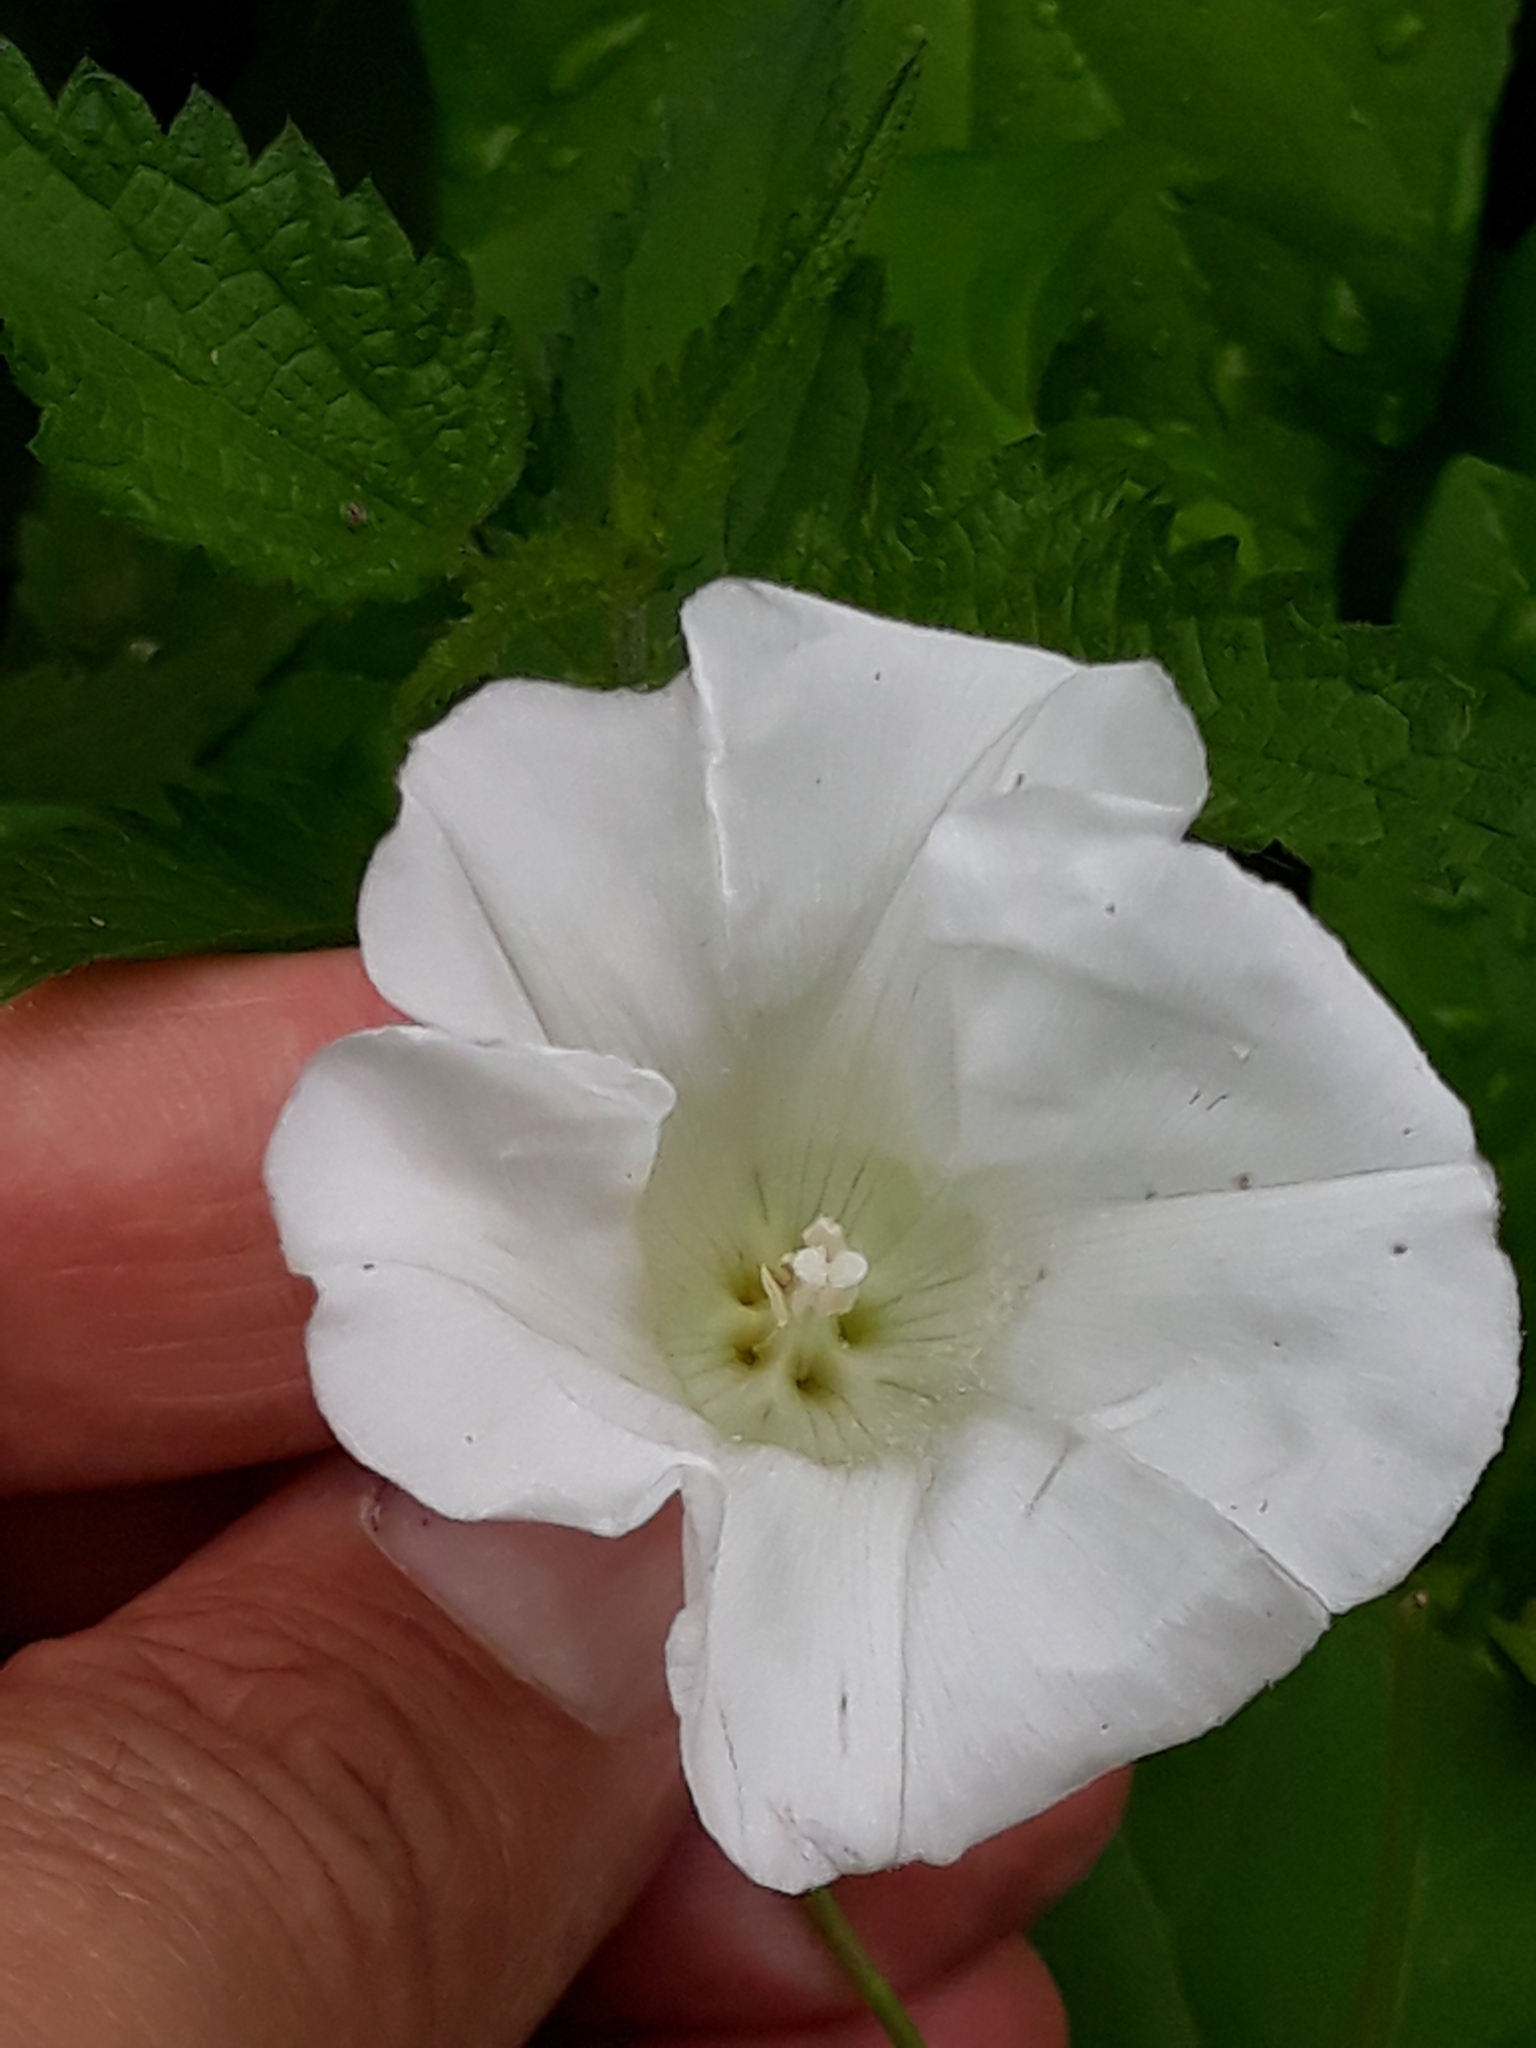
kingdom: Plantae
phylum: Tracheophyta
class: Magnoliopsida
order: Solanales
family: Convolvulaceae
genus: Calystegia
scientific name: Calystegia sepium
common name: Hedge bindweed
